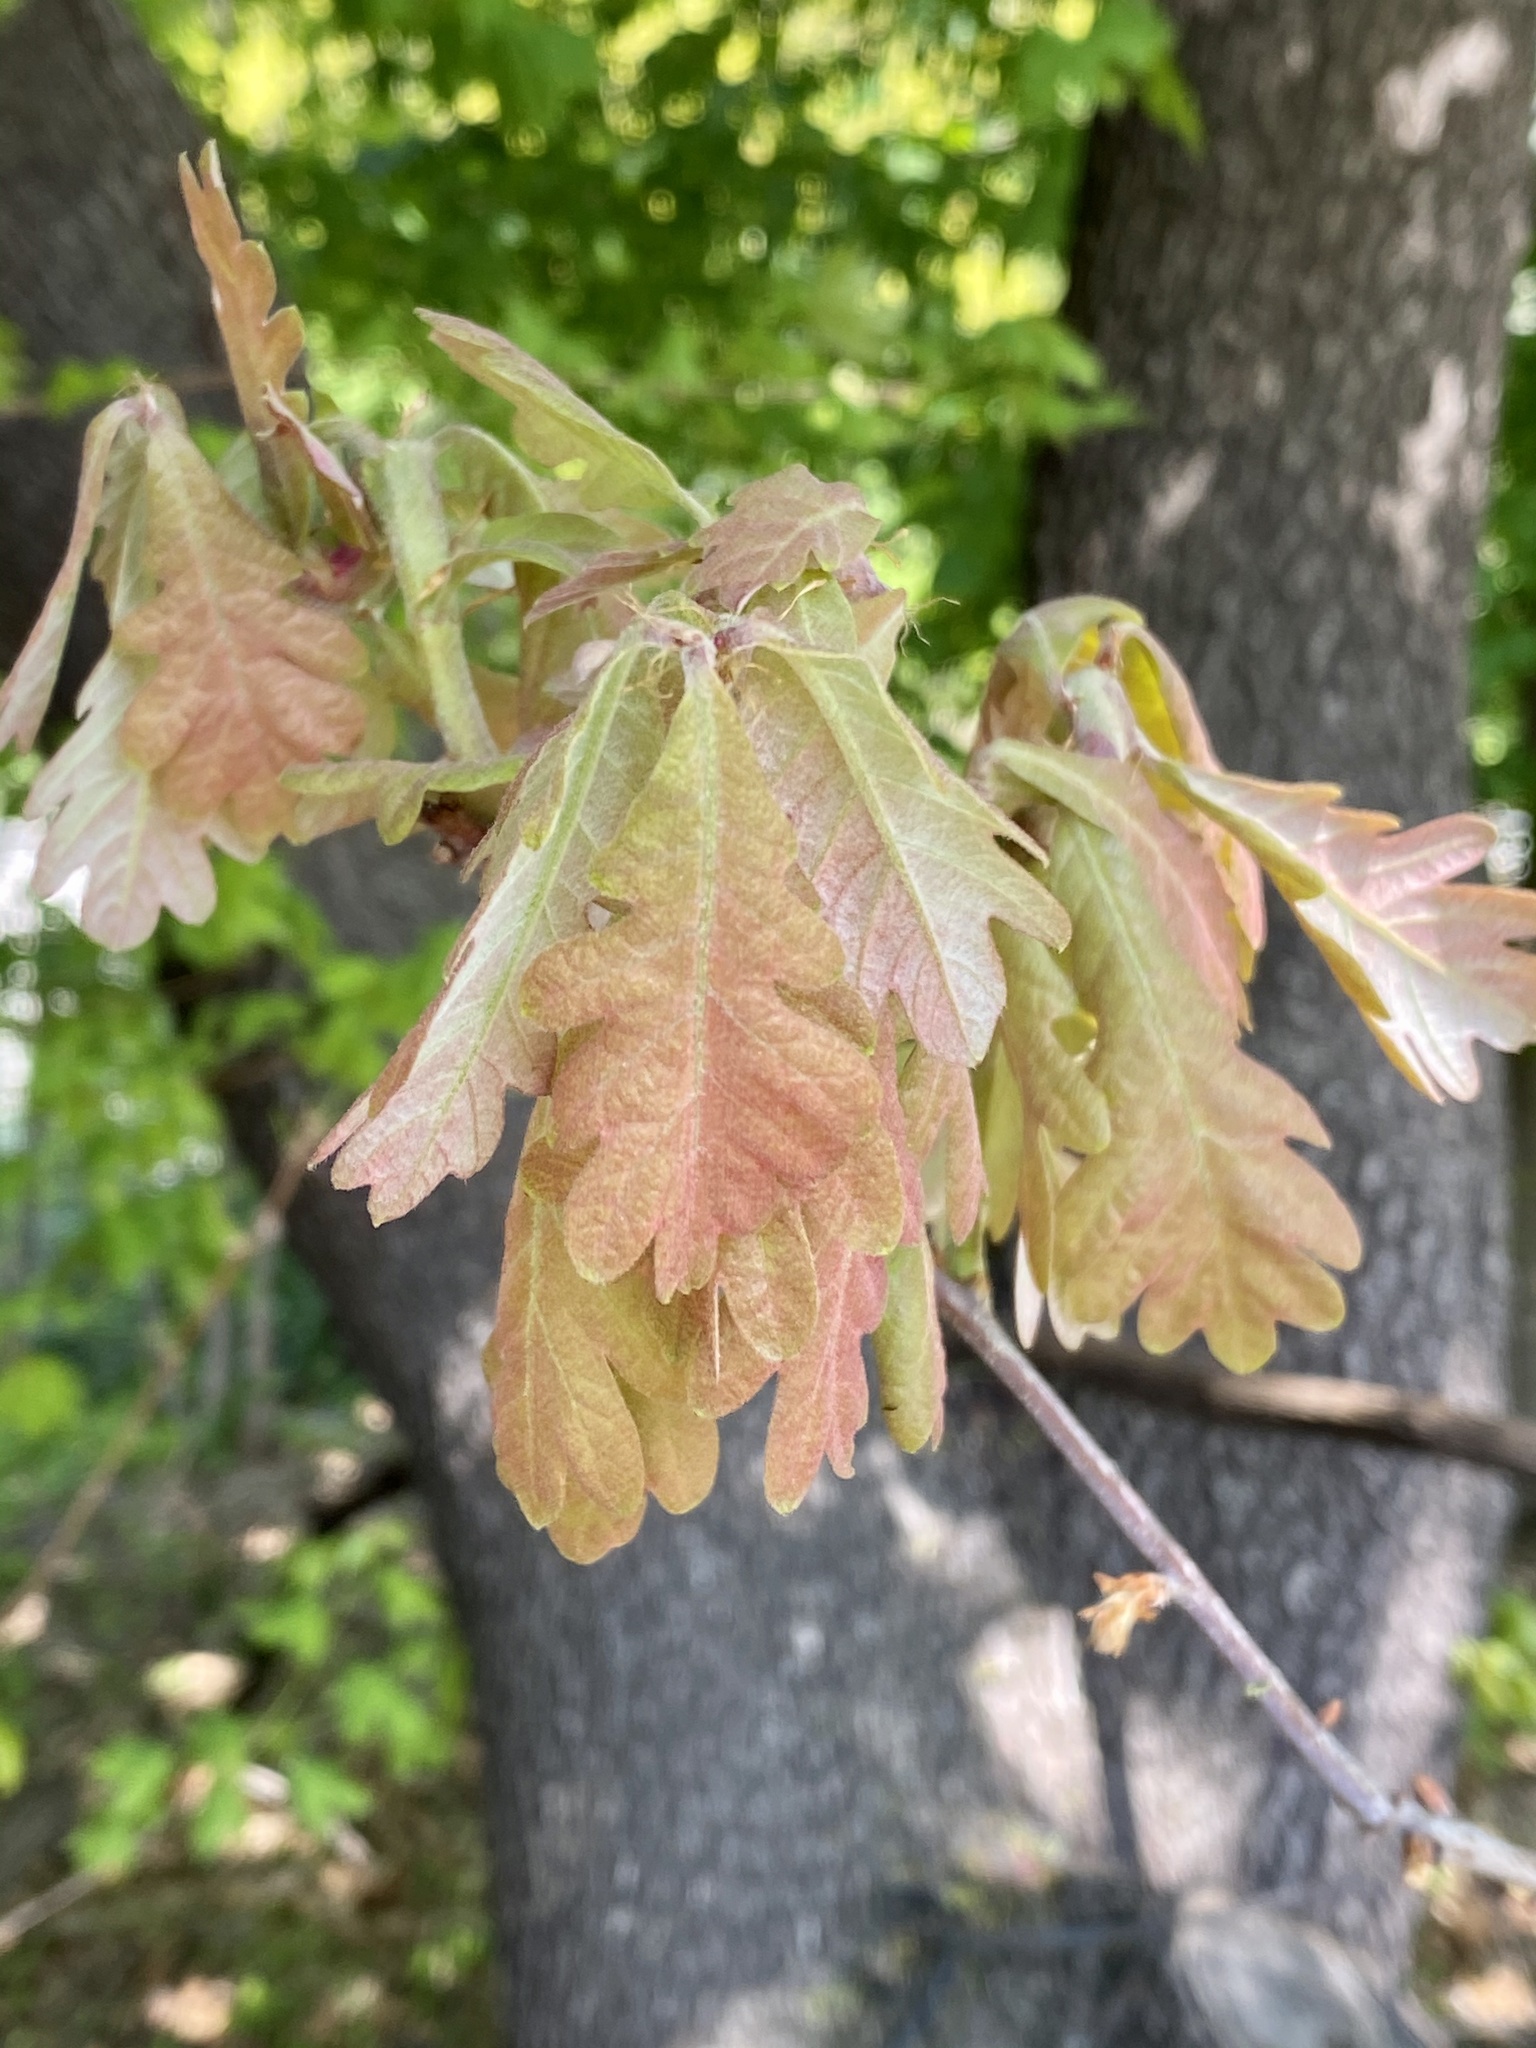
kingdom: Plantae
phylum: Tracheophyta
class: Magnoliopsida
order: Fagales
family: Fagaceae
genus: Quercus
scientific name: Quercus alba
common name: White oak
